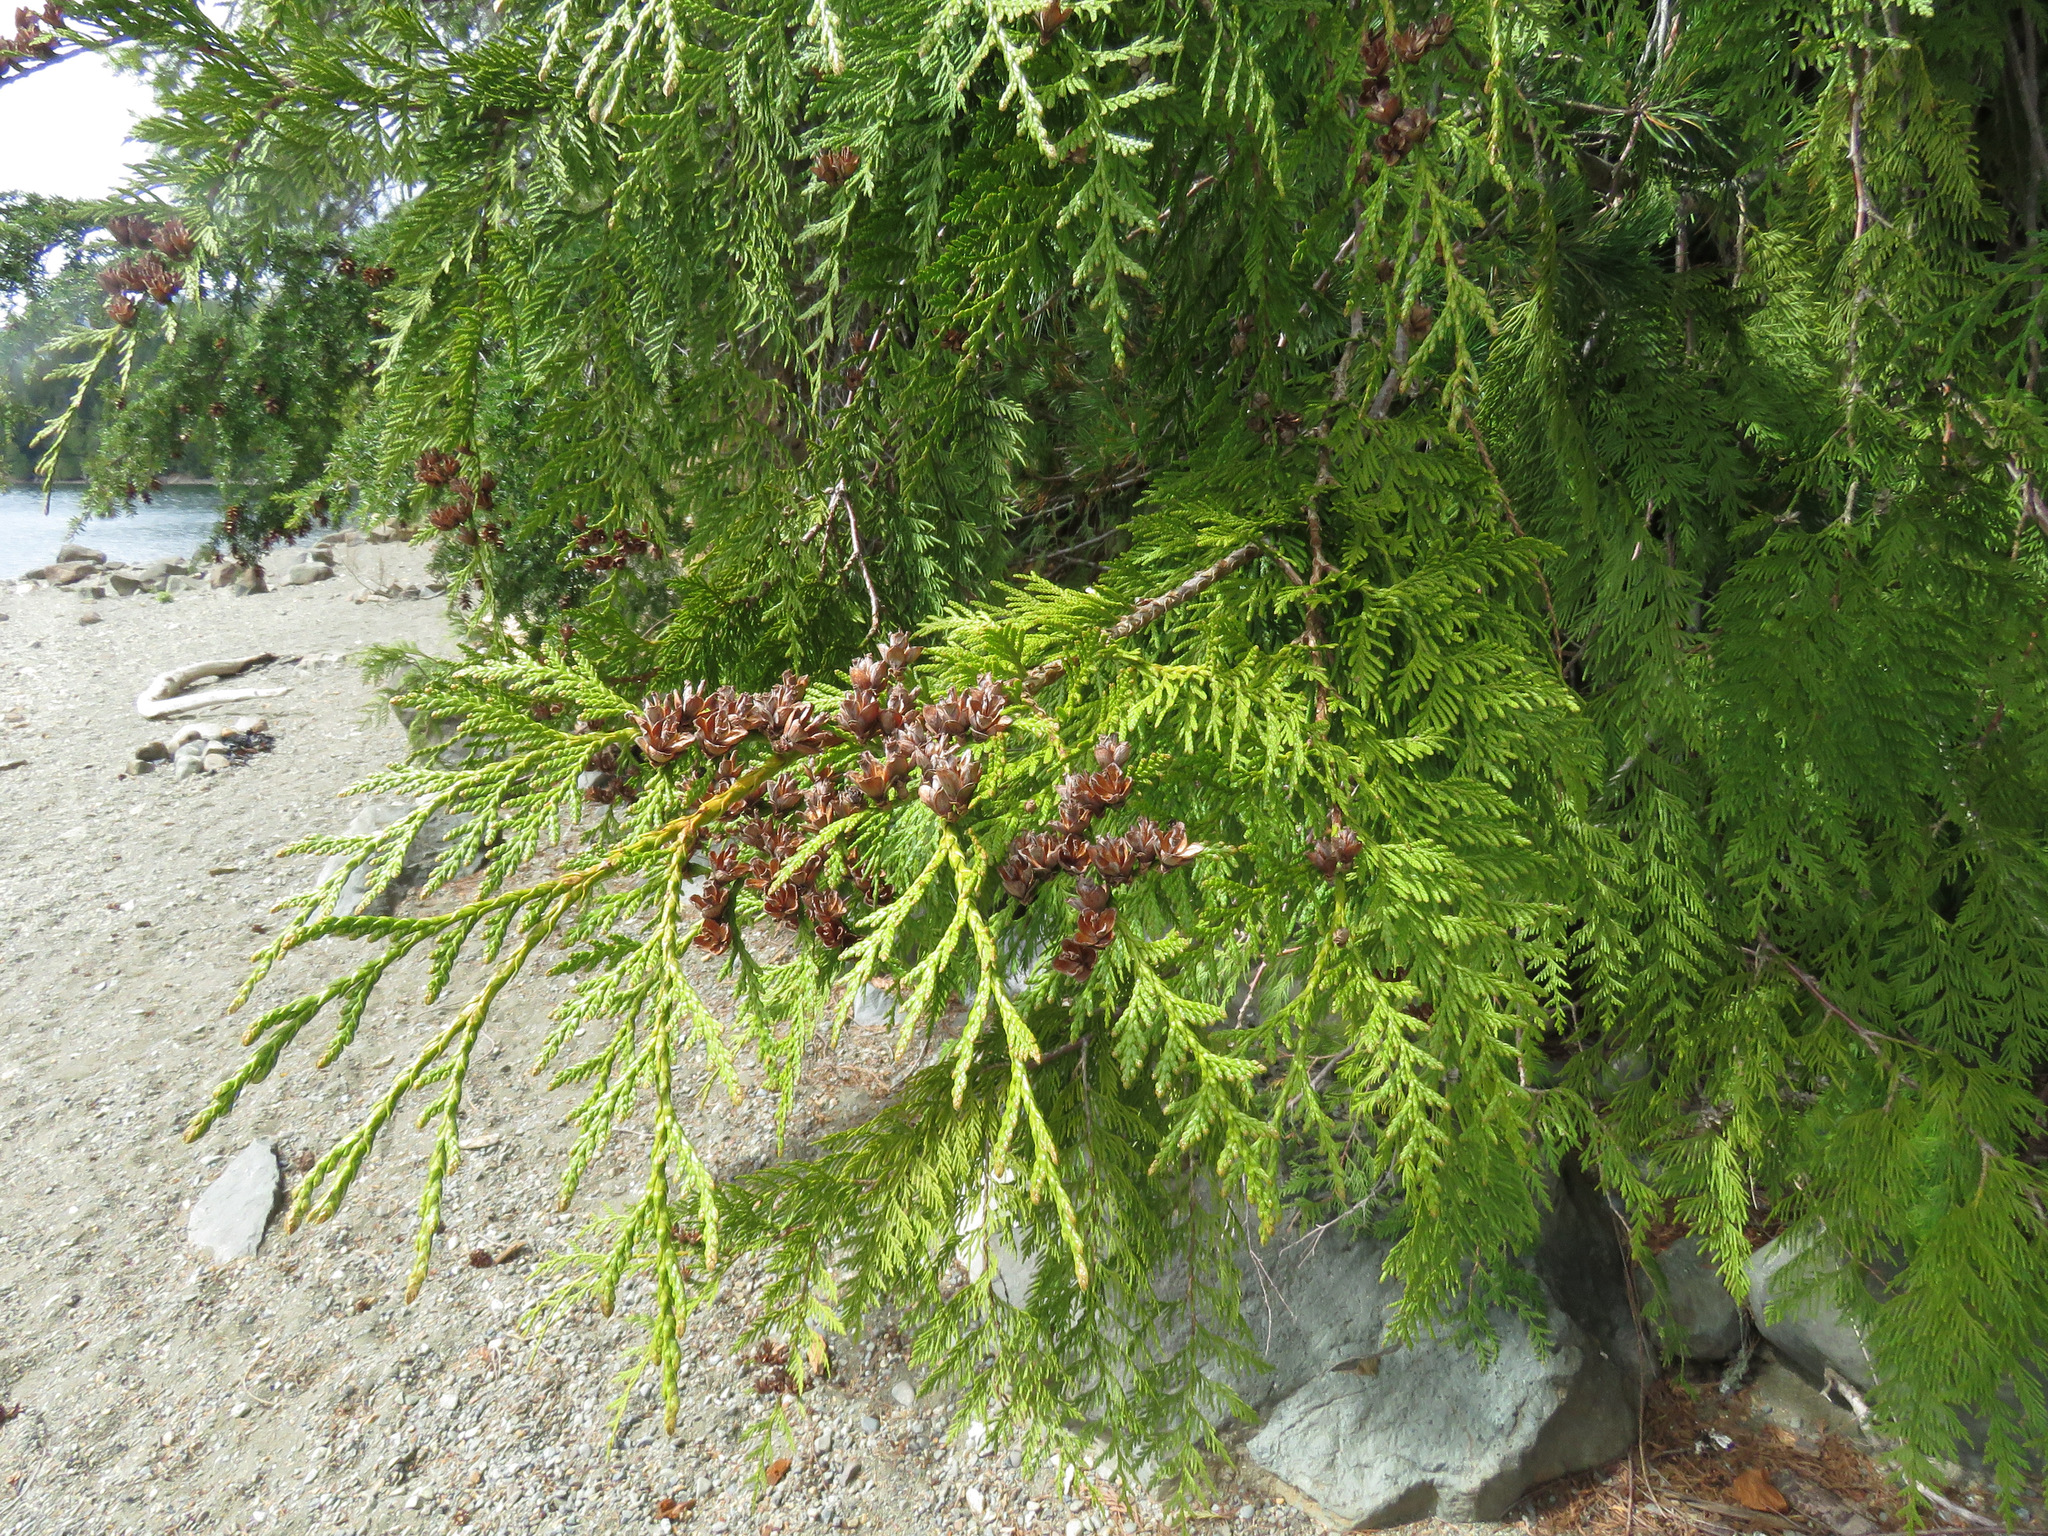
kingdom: Plantae
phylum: Tracheophyta
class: Pinopsida
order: Pinales
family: Cupressaceae
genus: Thuja
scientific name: Thuja plicata
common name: Western red-cedar
